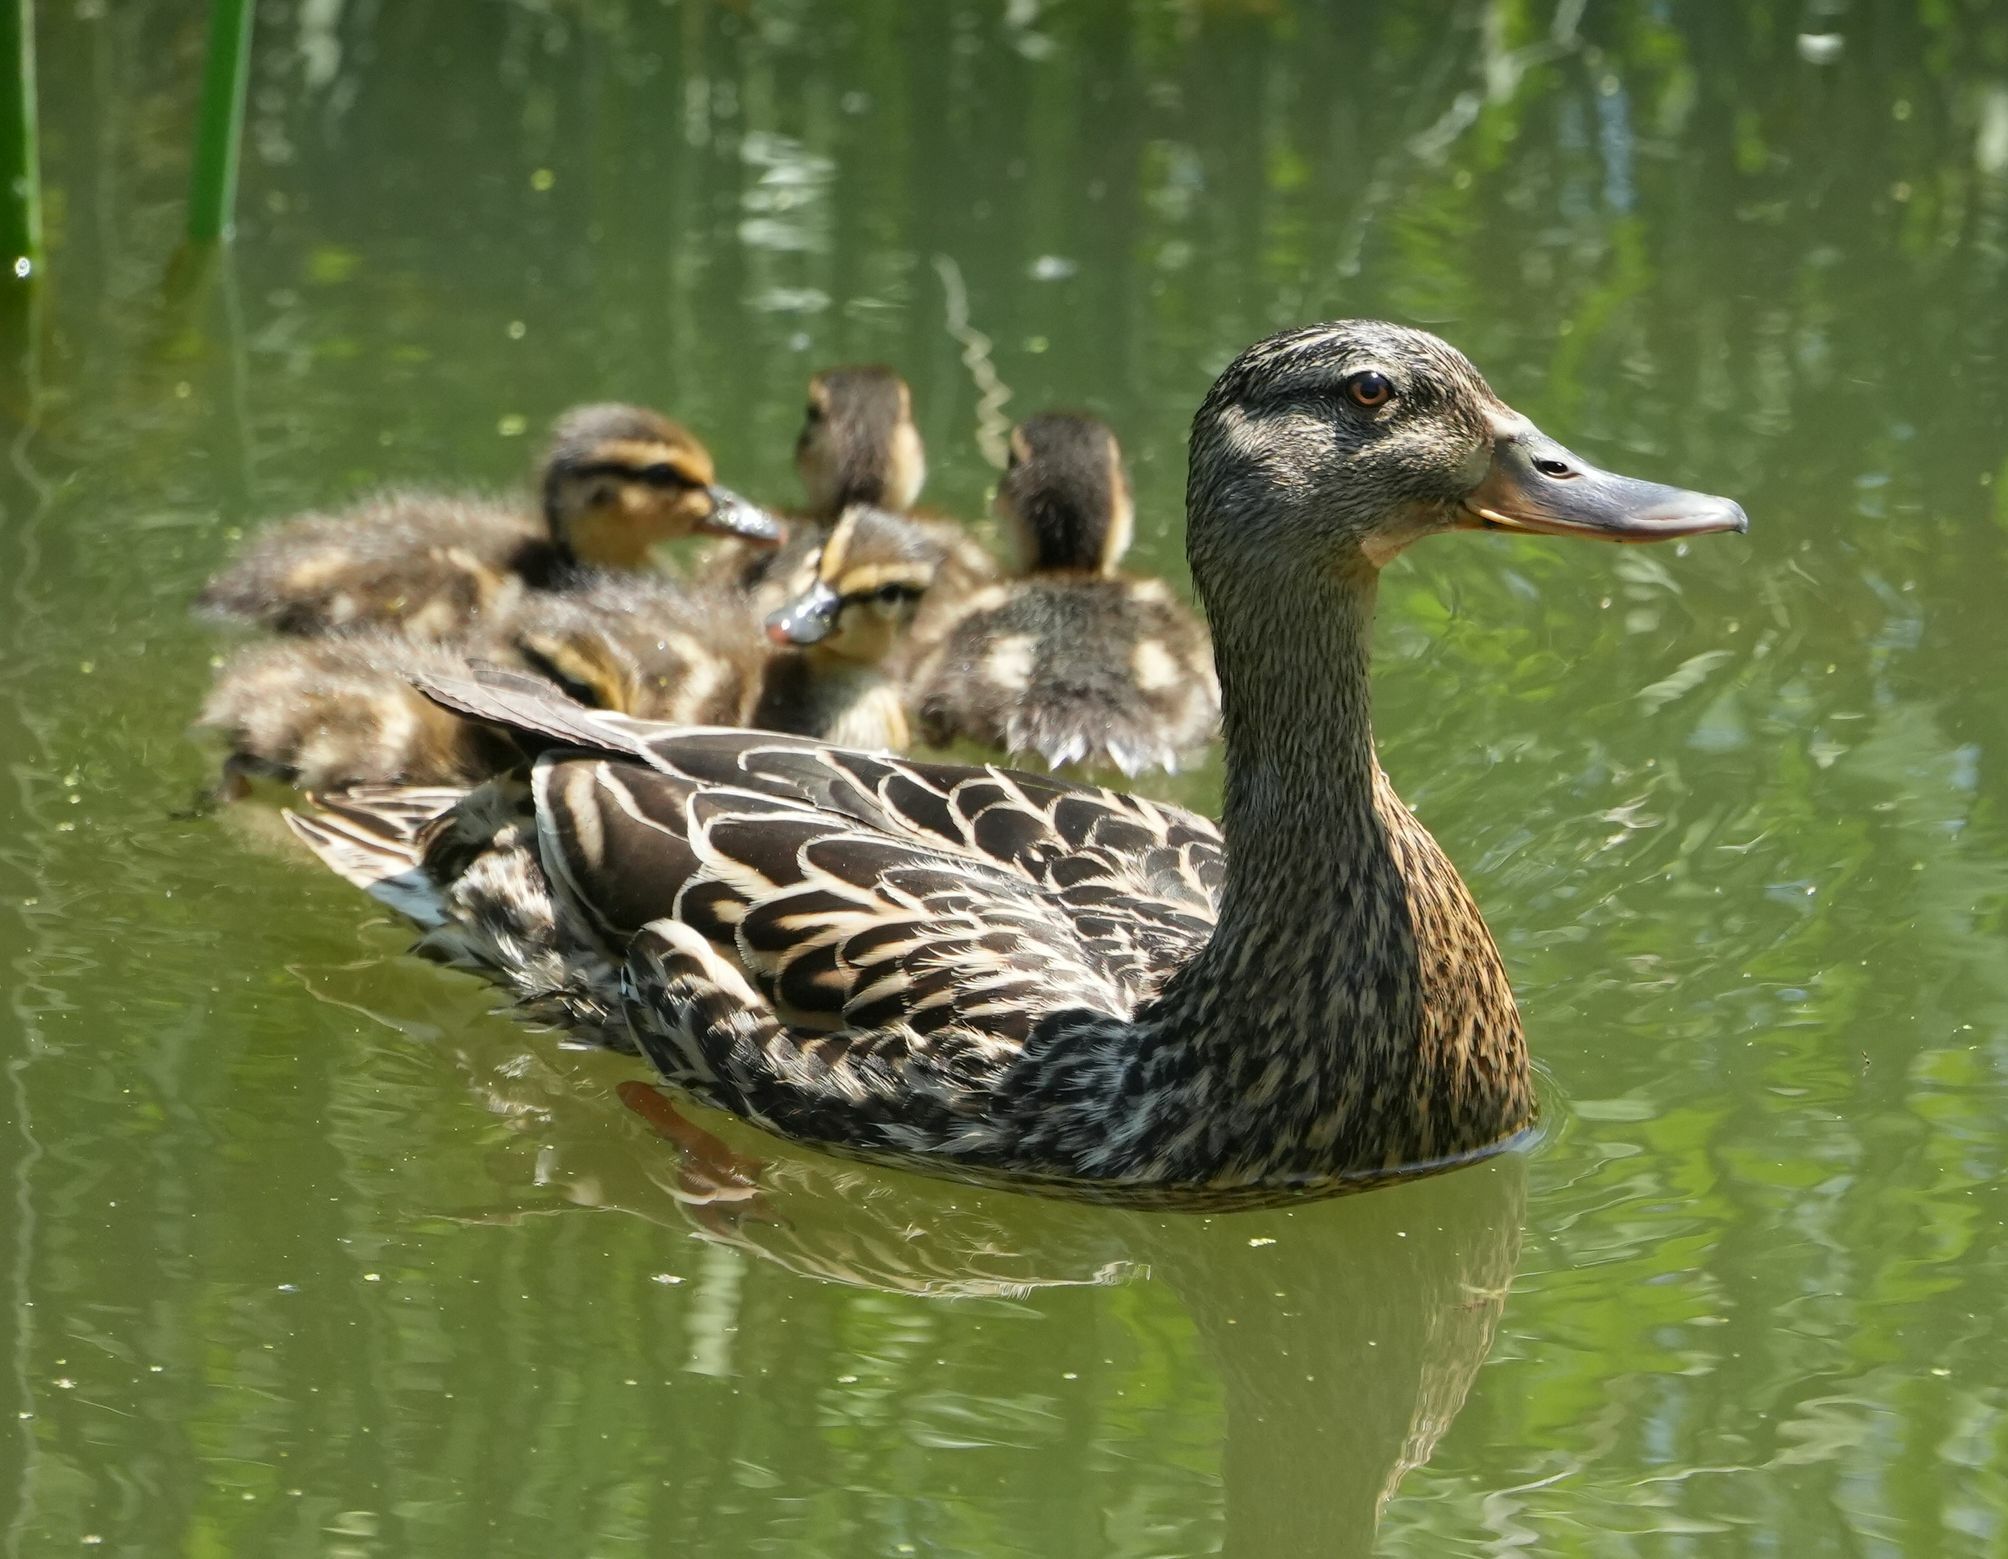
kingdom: Animalia
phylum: Chordata
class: Aves
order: Anseriformes
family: Anatidae
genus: Anas
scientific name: Anas platyrhynchos
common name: Mallard
